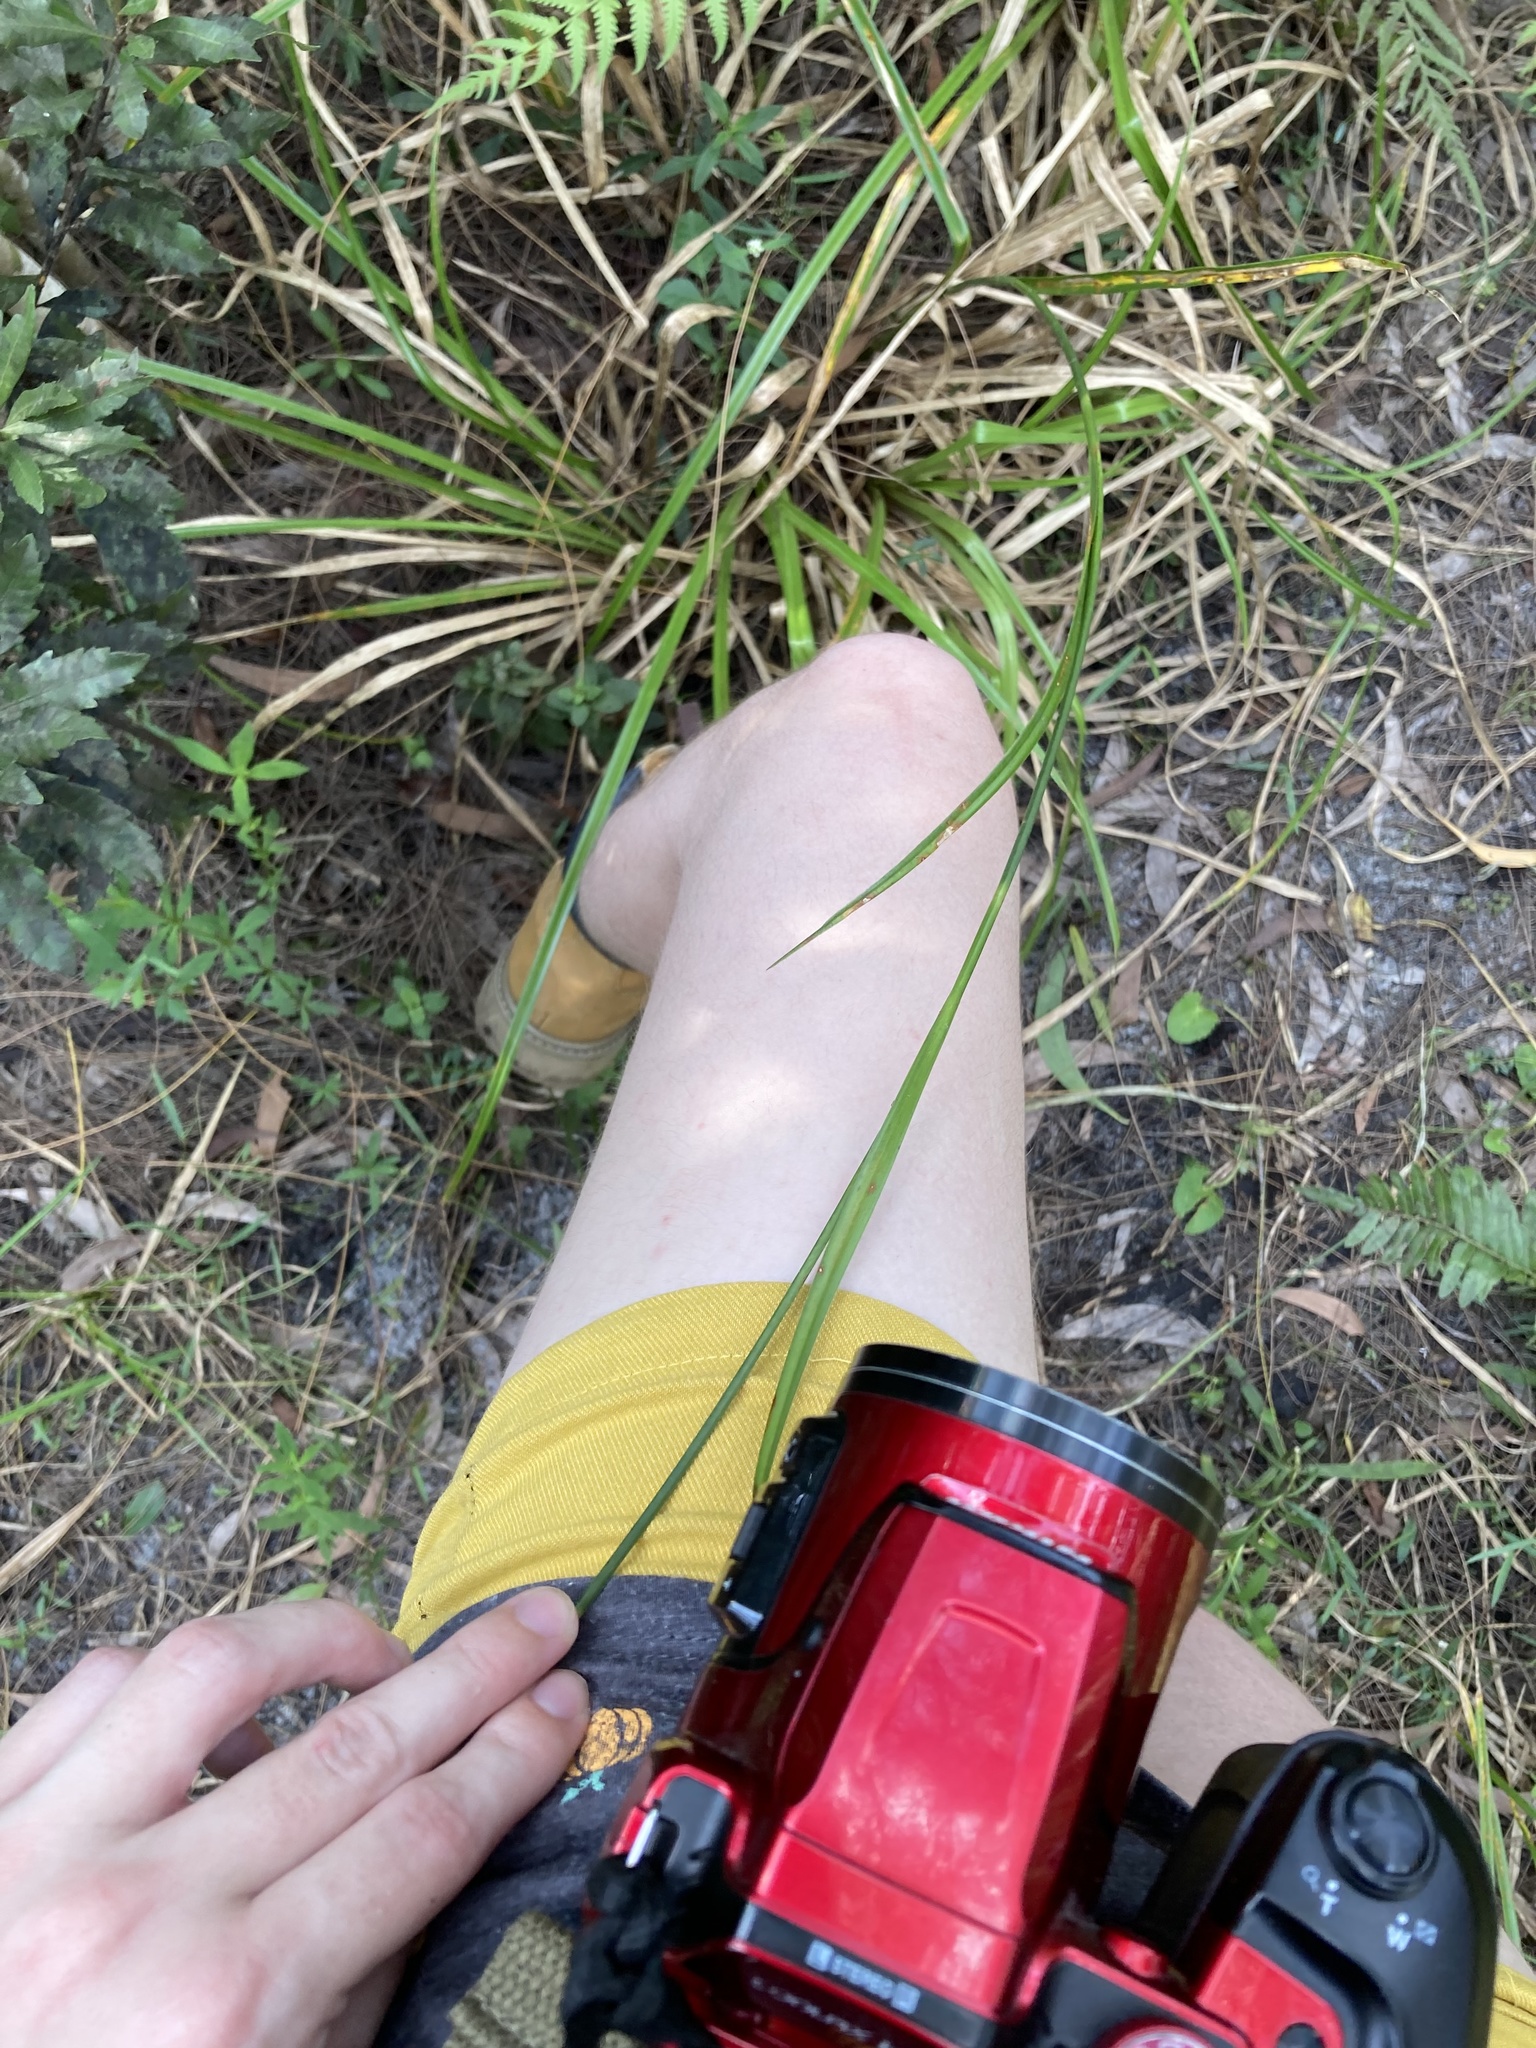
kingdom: Plantae
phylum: Tracheophyta
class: Liliopsida
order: Poales
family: Cyperaceae
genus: Rhynchospora
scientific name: Rhynchospora odorata
